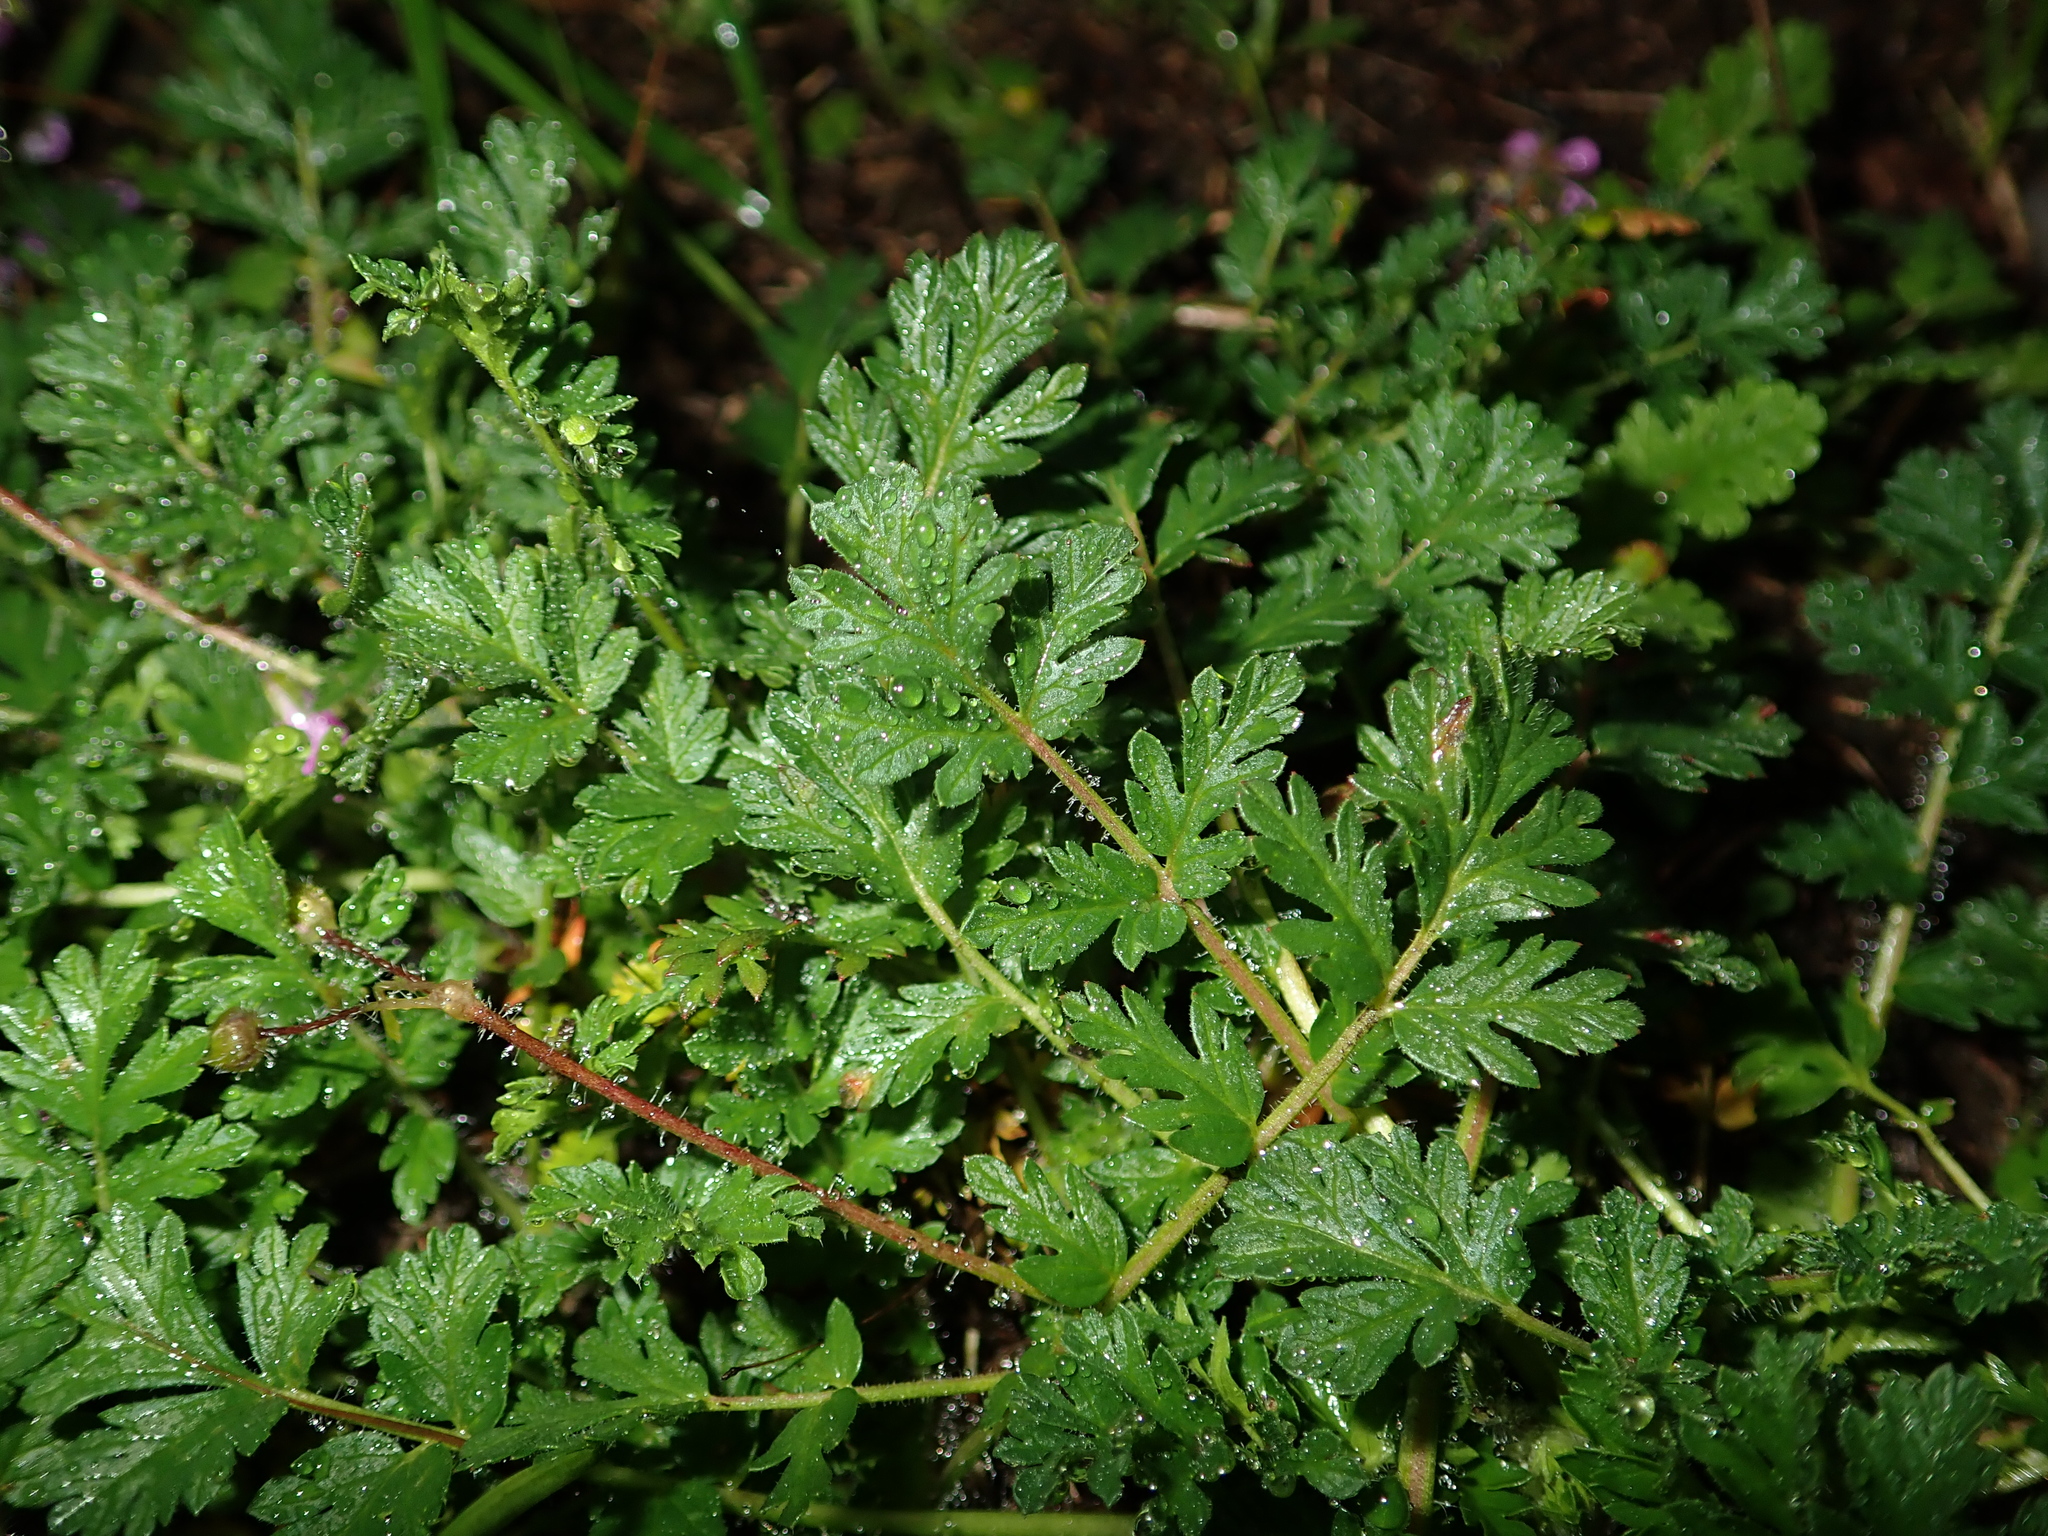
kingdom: Plantae
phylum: Tracheophyta
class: Magnoliopsida
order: Geraniales
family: Geraniaceae
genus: Erodium
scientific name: Erodium cicutarium
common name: Common stork's-bill
